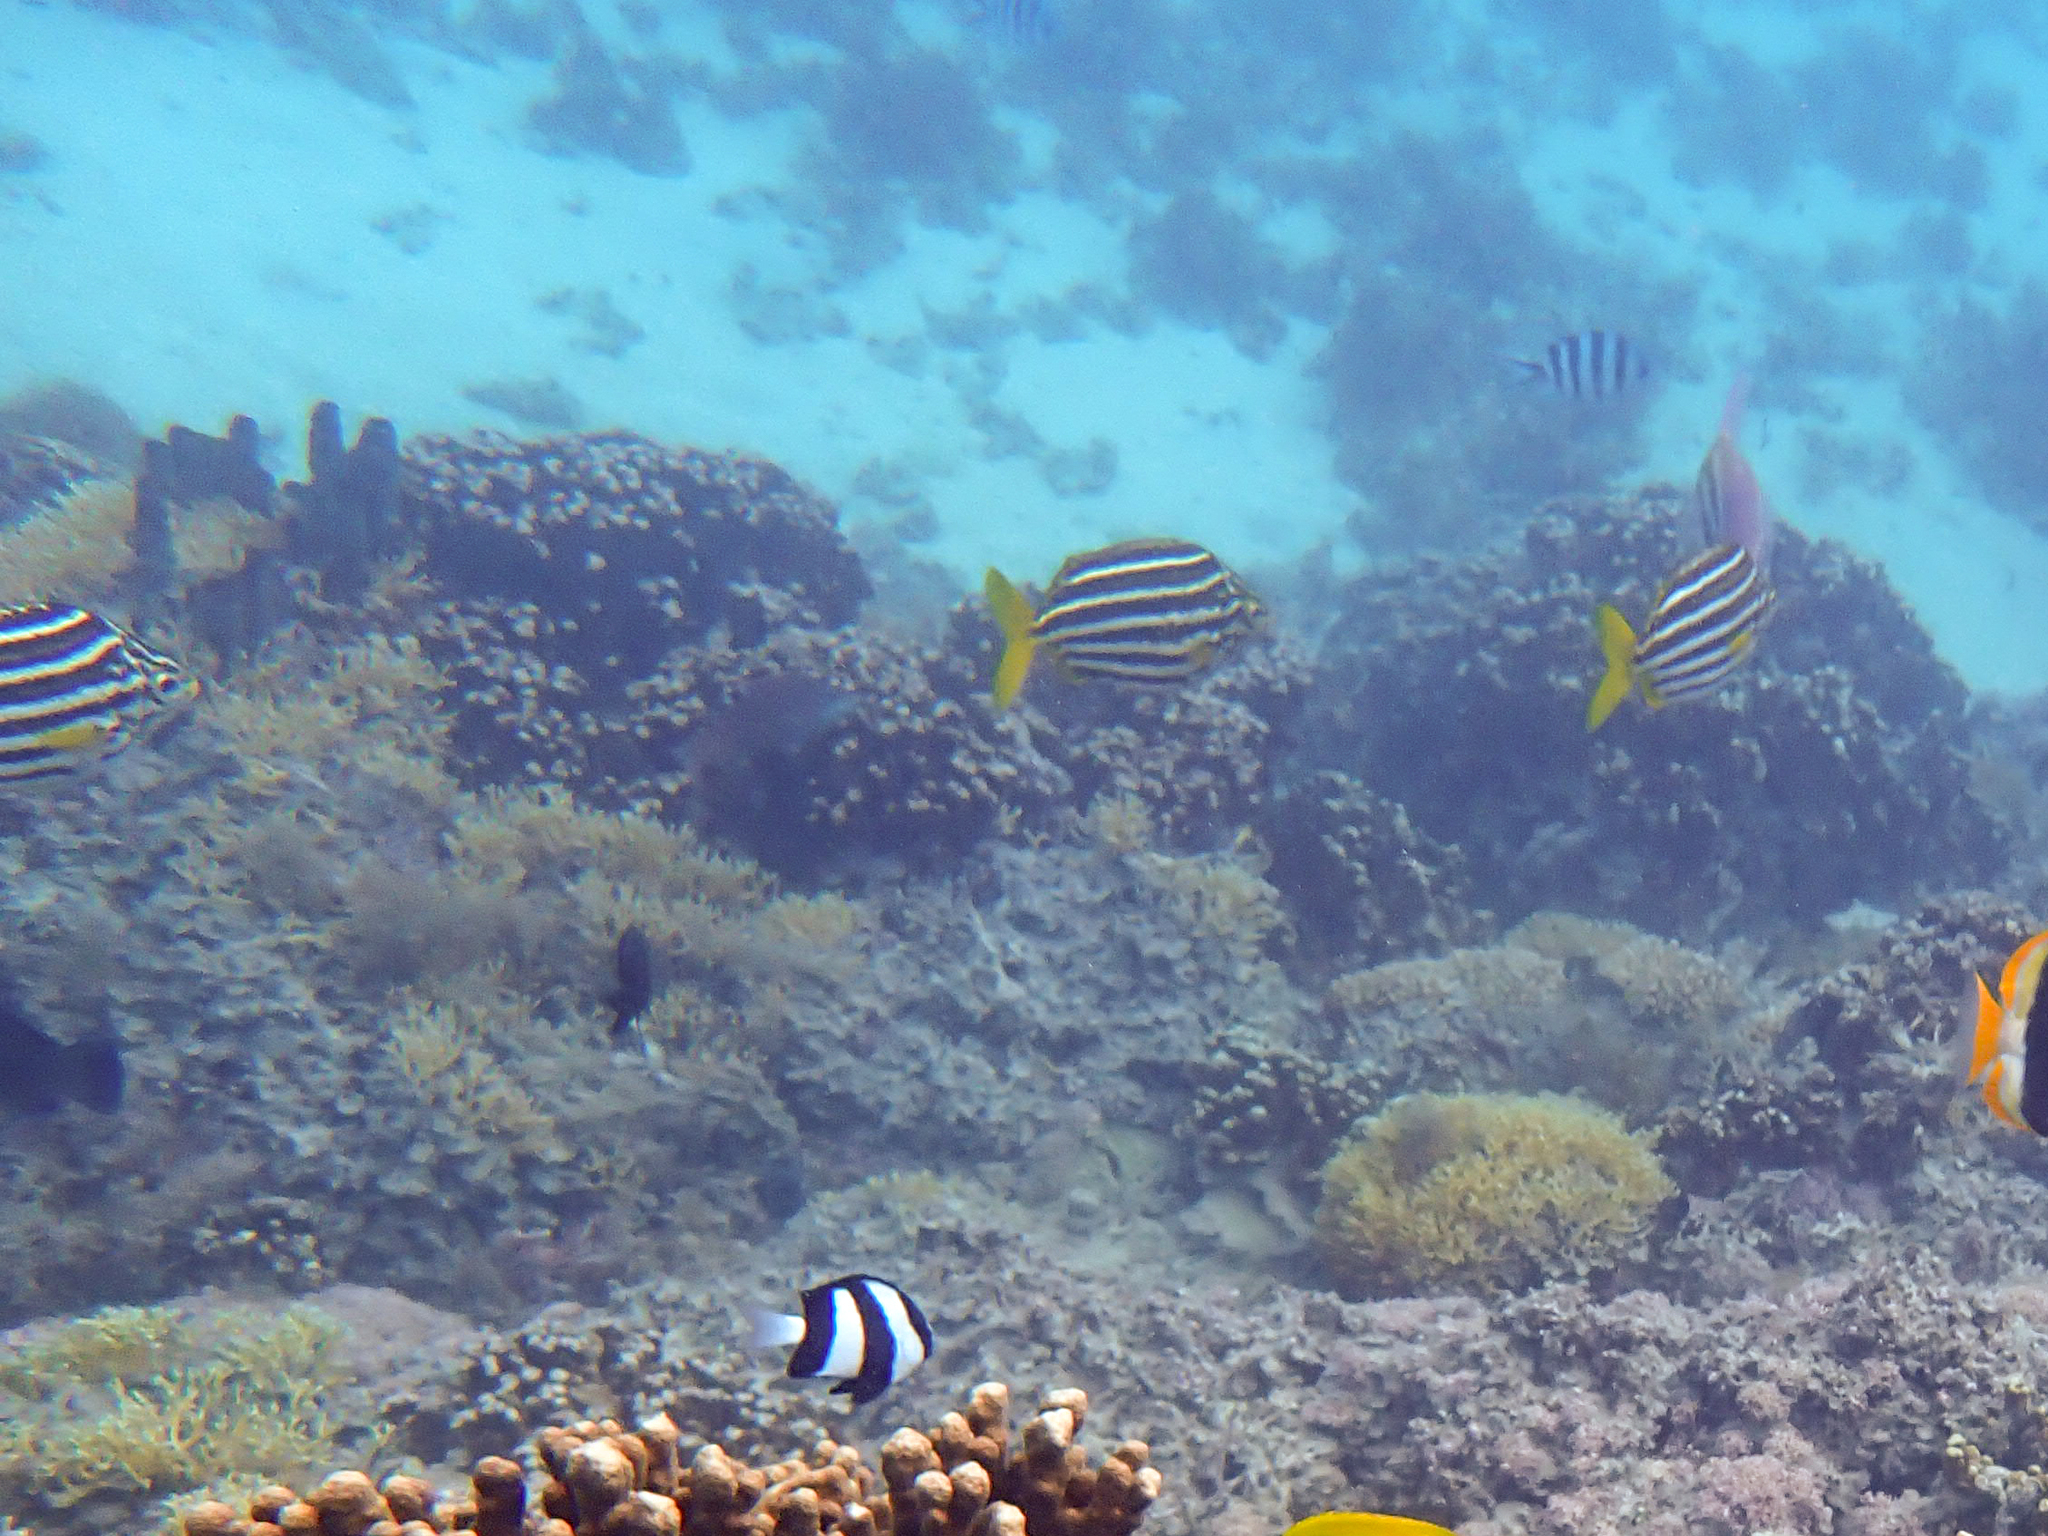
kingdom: Animalia
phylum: Chordata
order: Perciformes
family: Kyphosidae
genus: Atypichthys
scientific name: Atypichthys latus
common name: Mado
